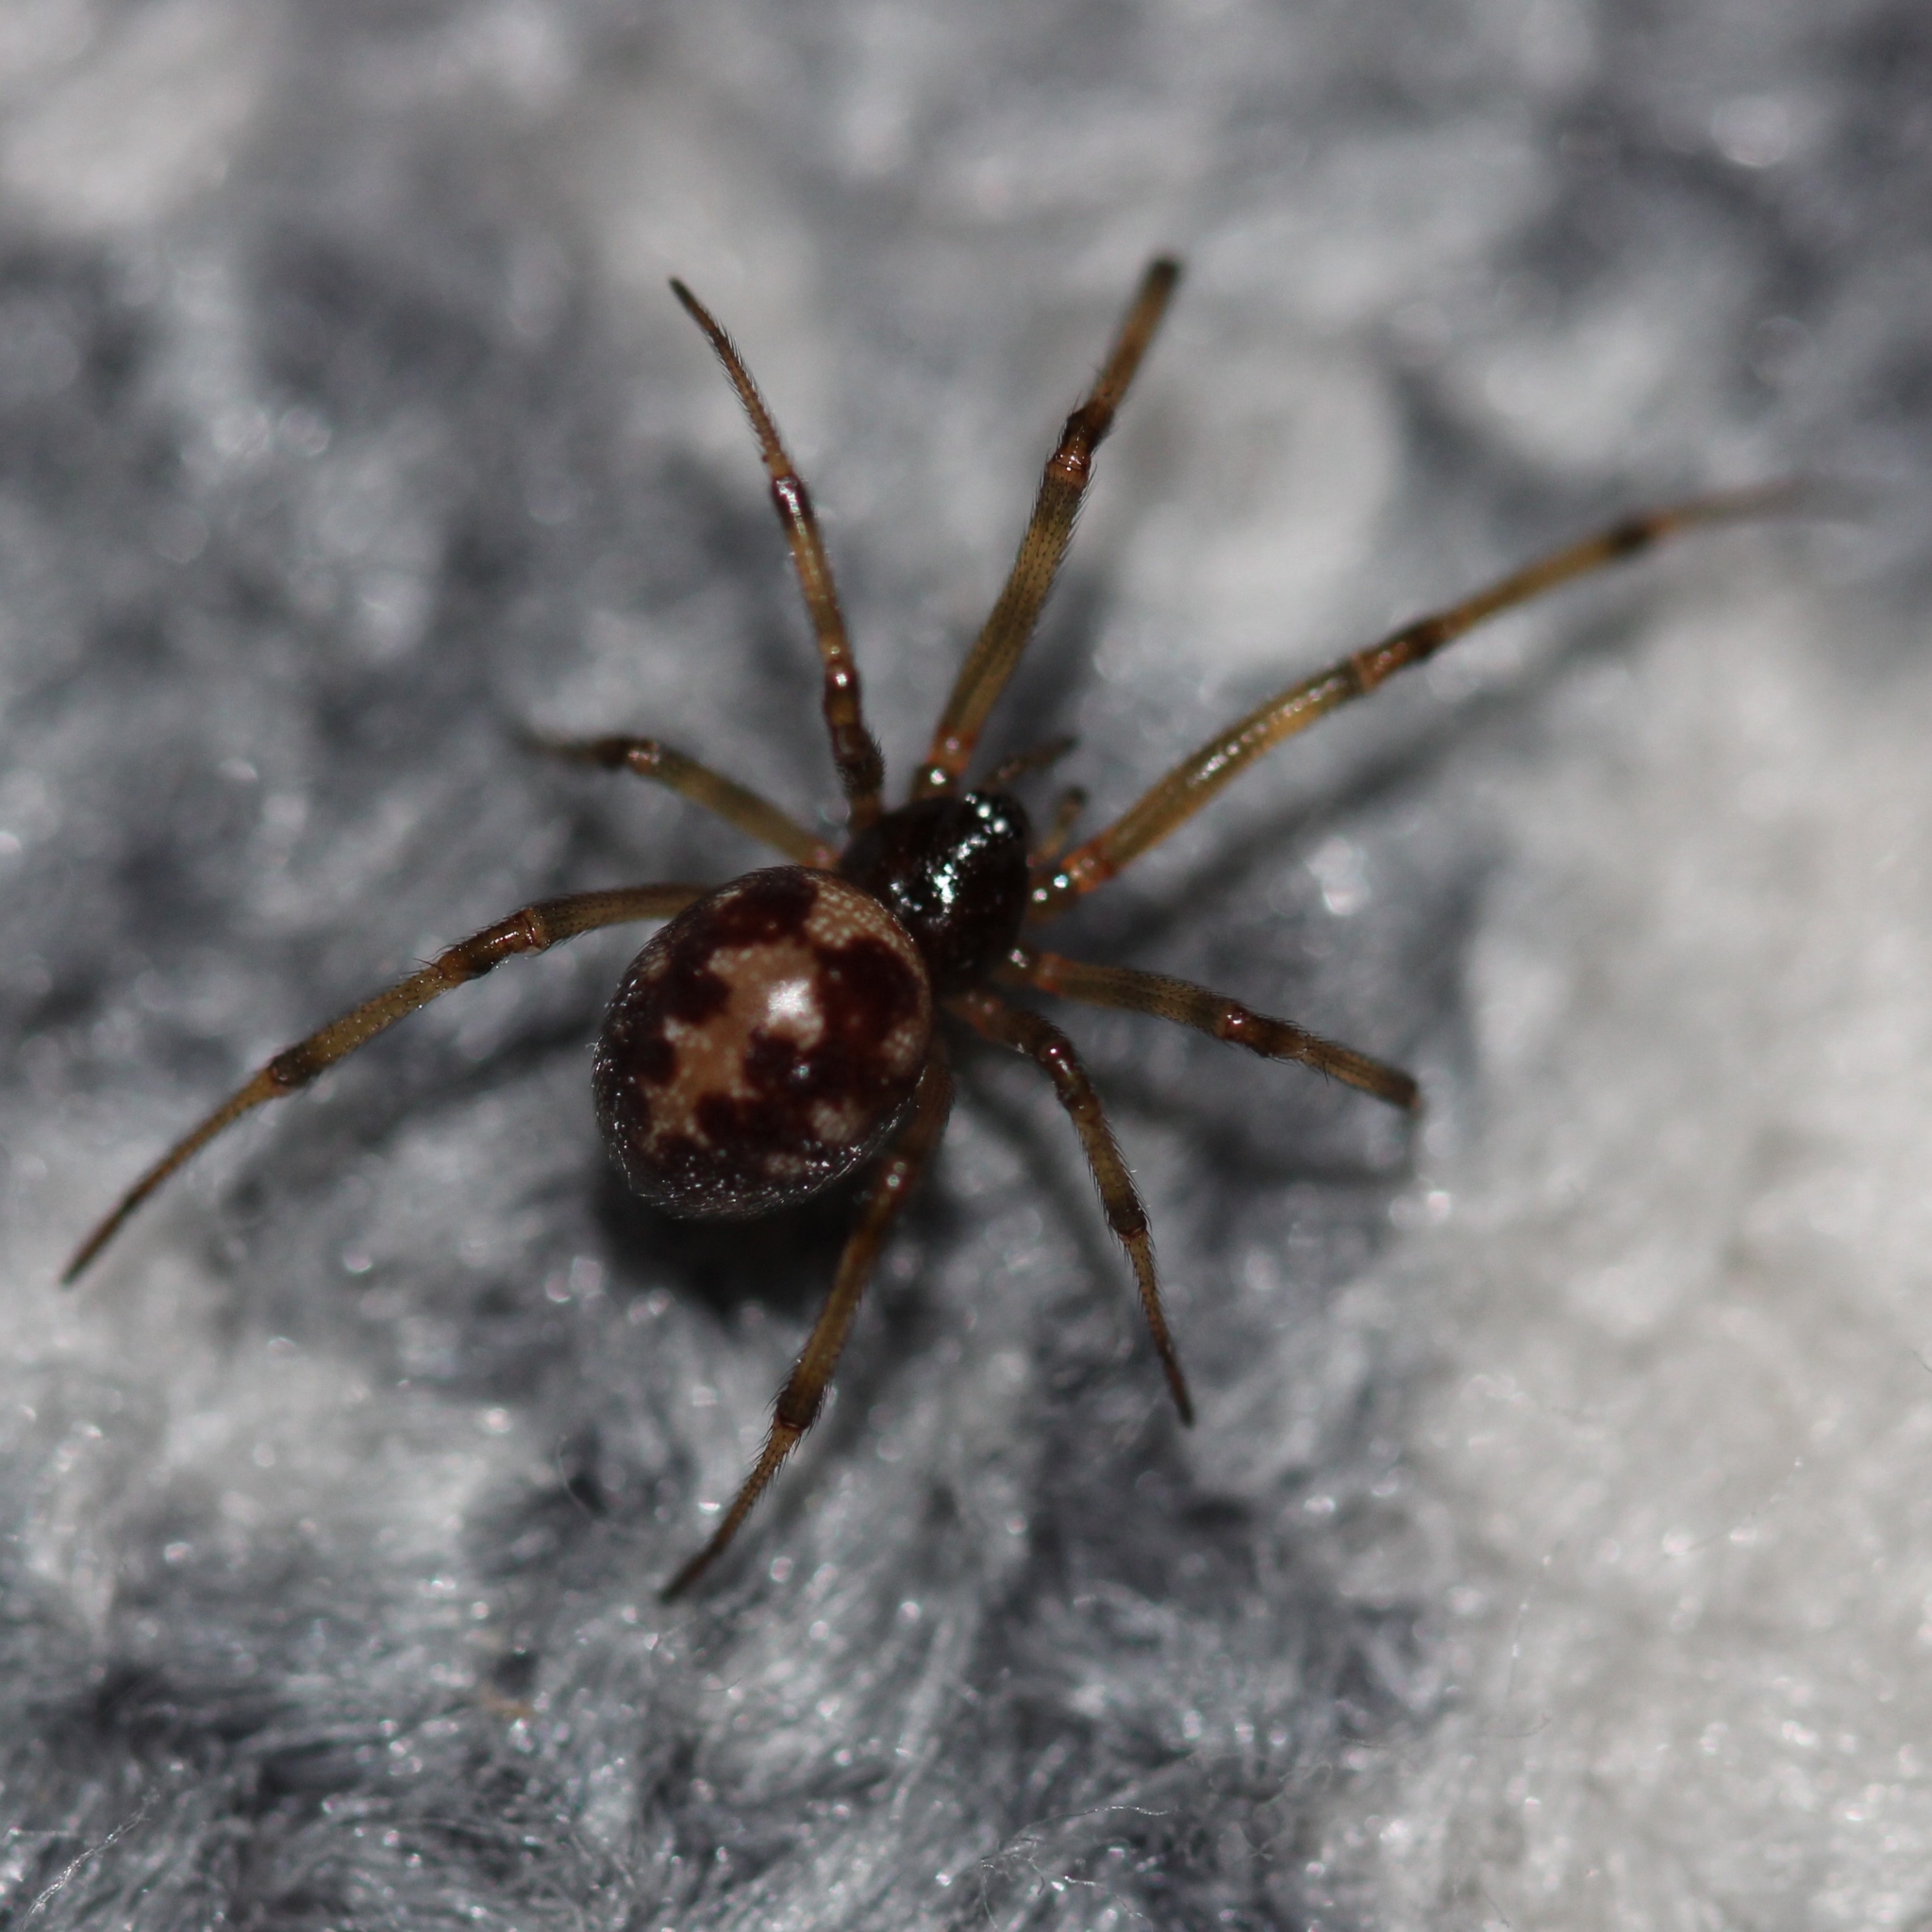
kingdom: Animalia
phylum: Arthropoda
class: Arachnida
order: Araneae
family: Theridiidae
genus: Steatoda
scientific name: Steatoda triangulosa
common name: Triangulate bud spider
